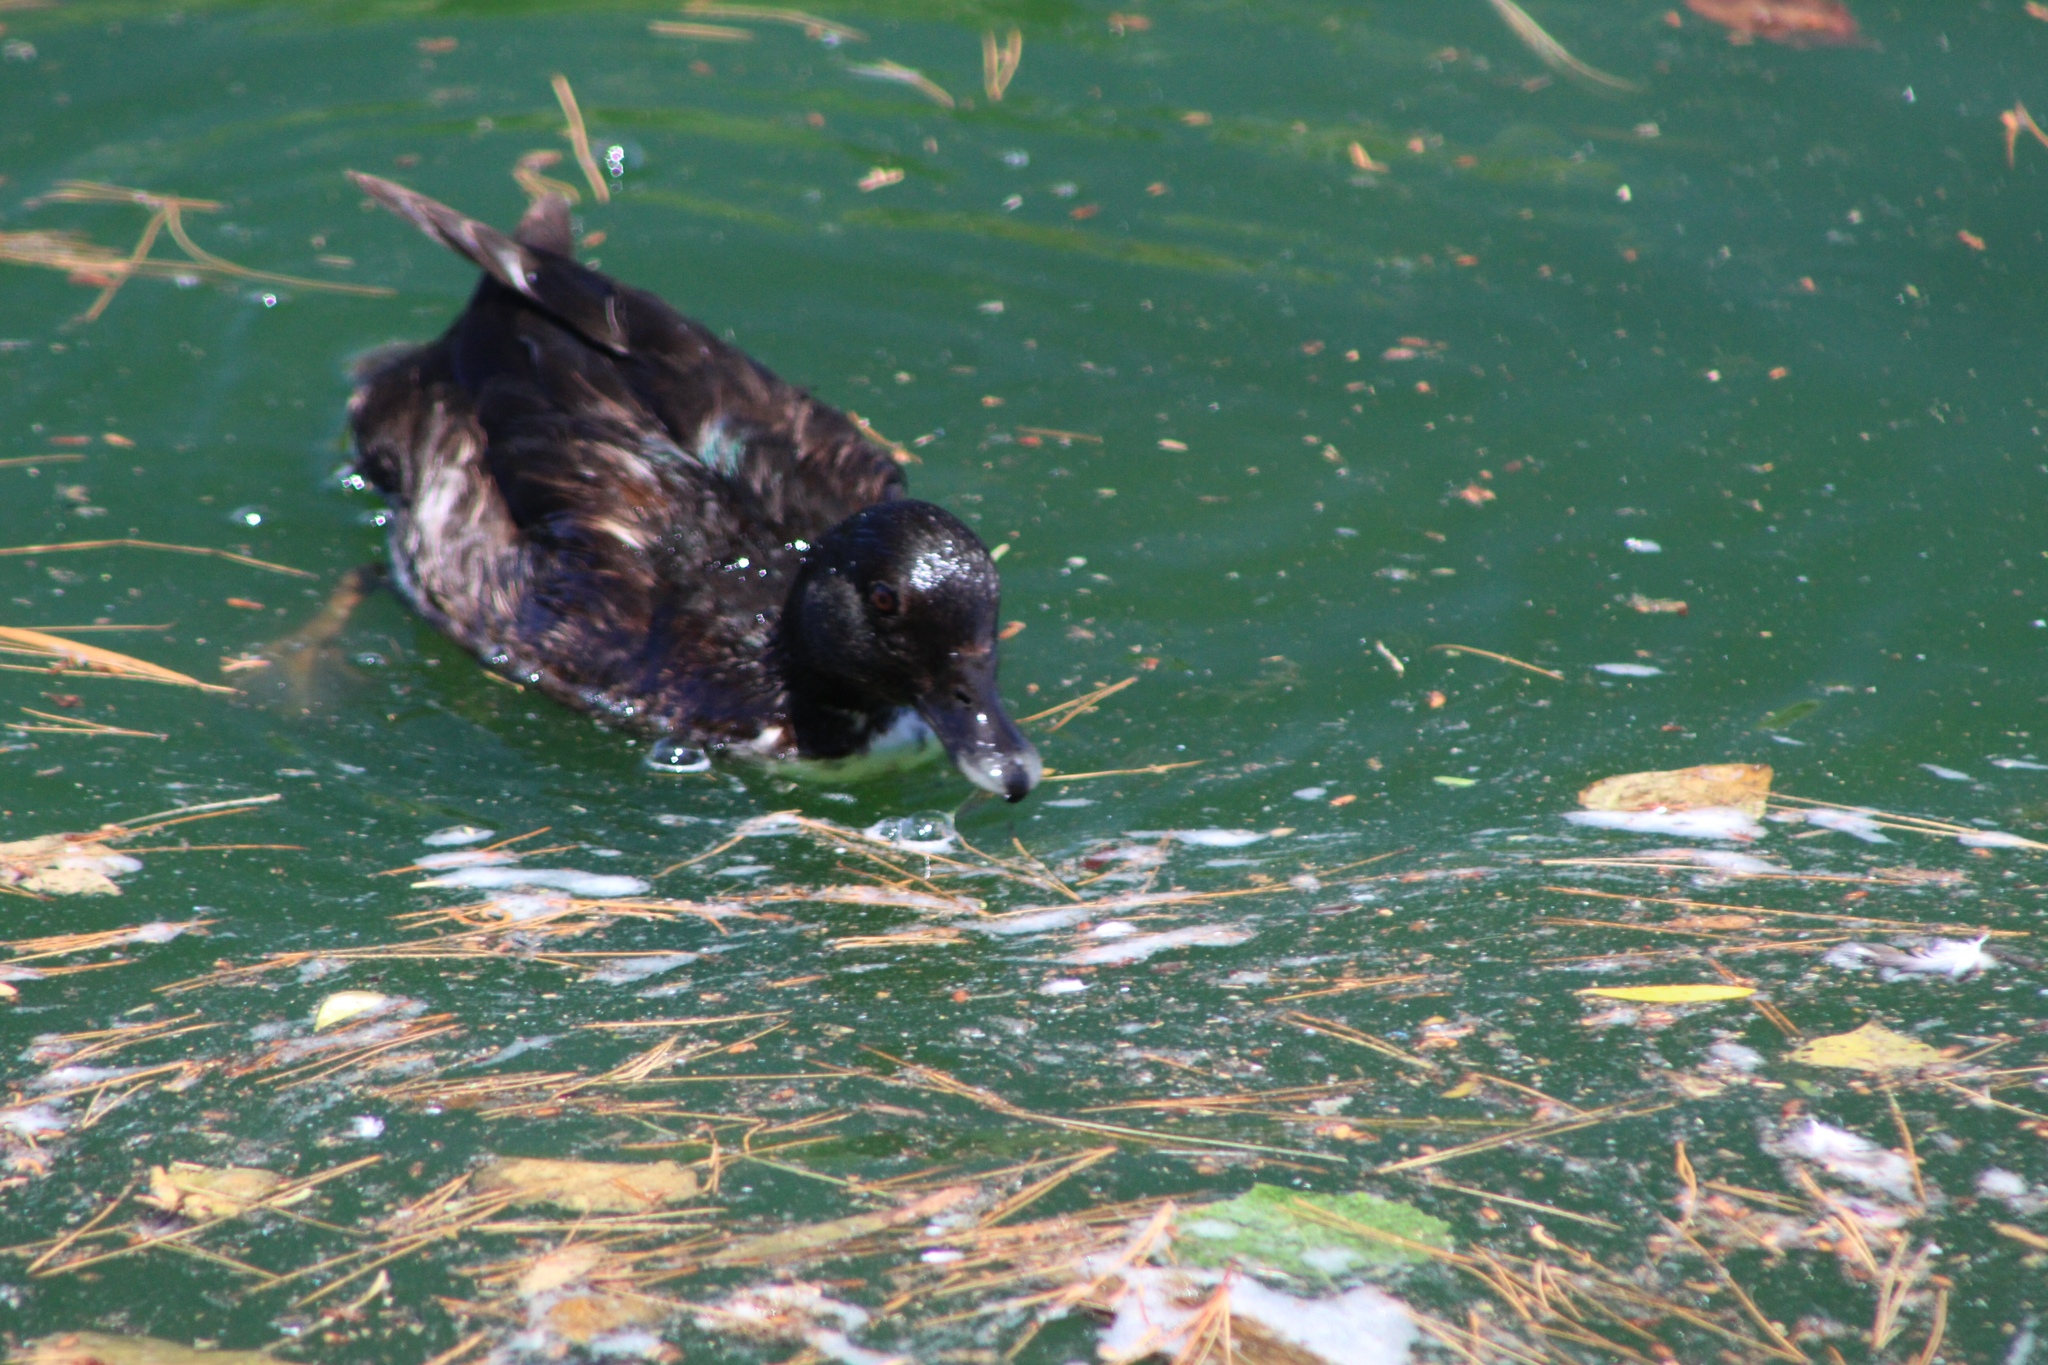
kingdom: Animalia
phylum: Chordata
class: Aves
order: Anseriformes
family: Anatidae
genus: Anas
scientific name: Anas platyrhynchos
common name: Mallard
